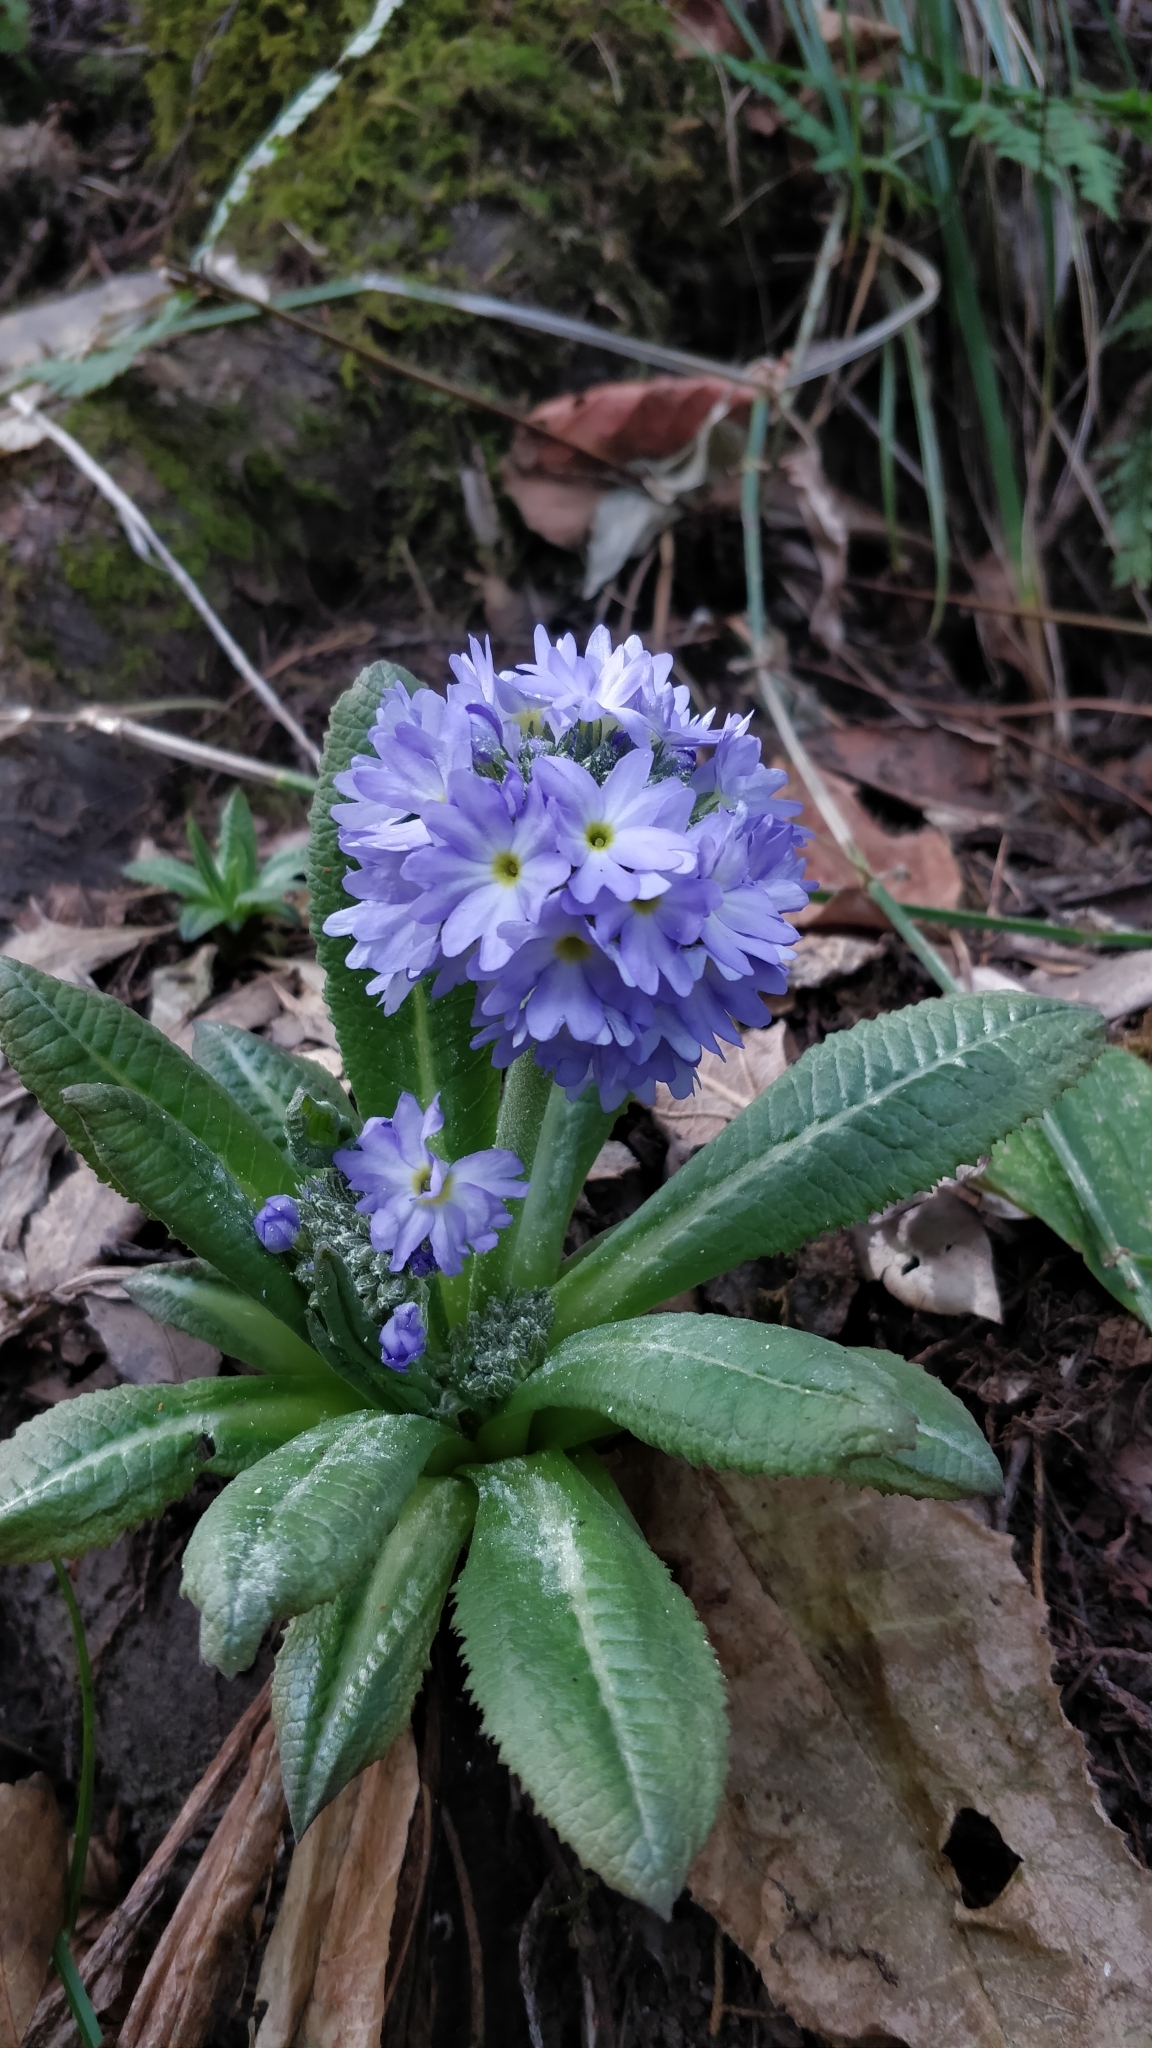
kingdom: Plantae
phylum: Tracheophyta
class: Magnoliopsida
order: Ericales
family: Primulaceae
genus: Primula
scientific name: Primula denticulata
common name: Drumstick primula
